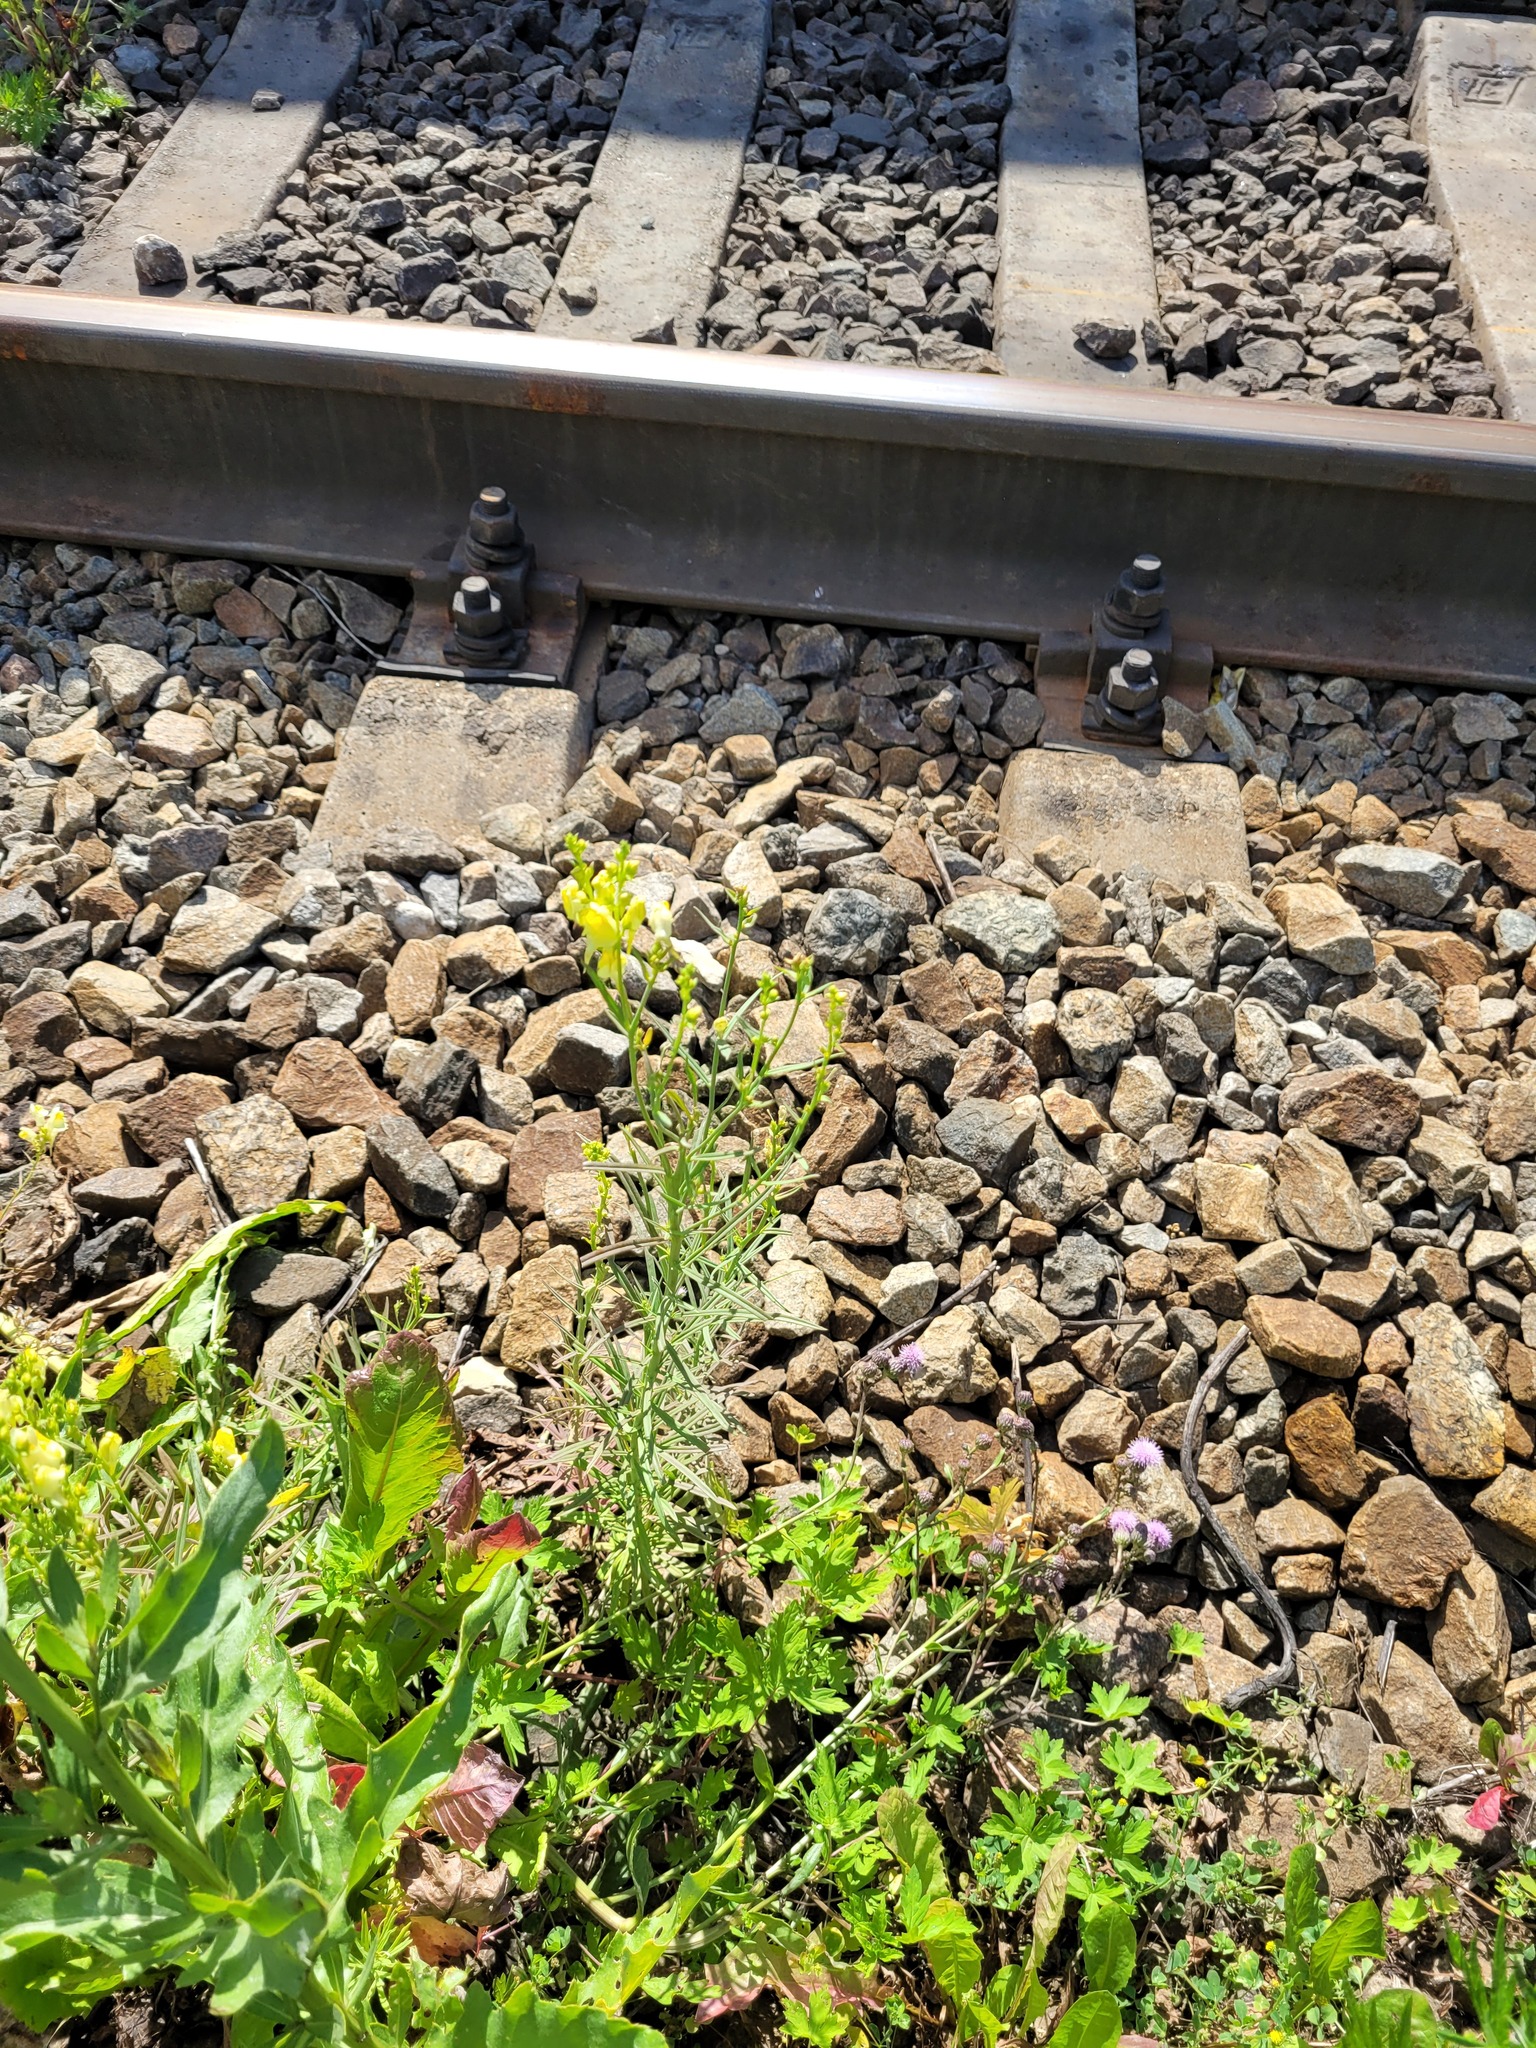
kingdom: Plantae
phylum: Tracheophyta
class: Magnoliopsida
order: Lamiales
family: Plantaginaceae
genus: Linaria
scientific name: Linaria vulgaris
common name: Butter and eggs
